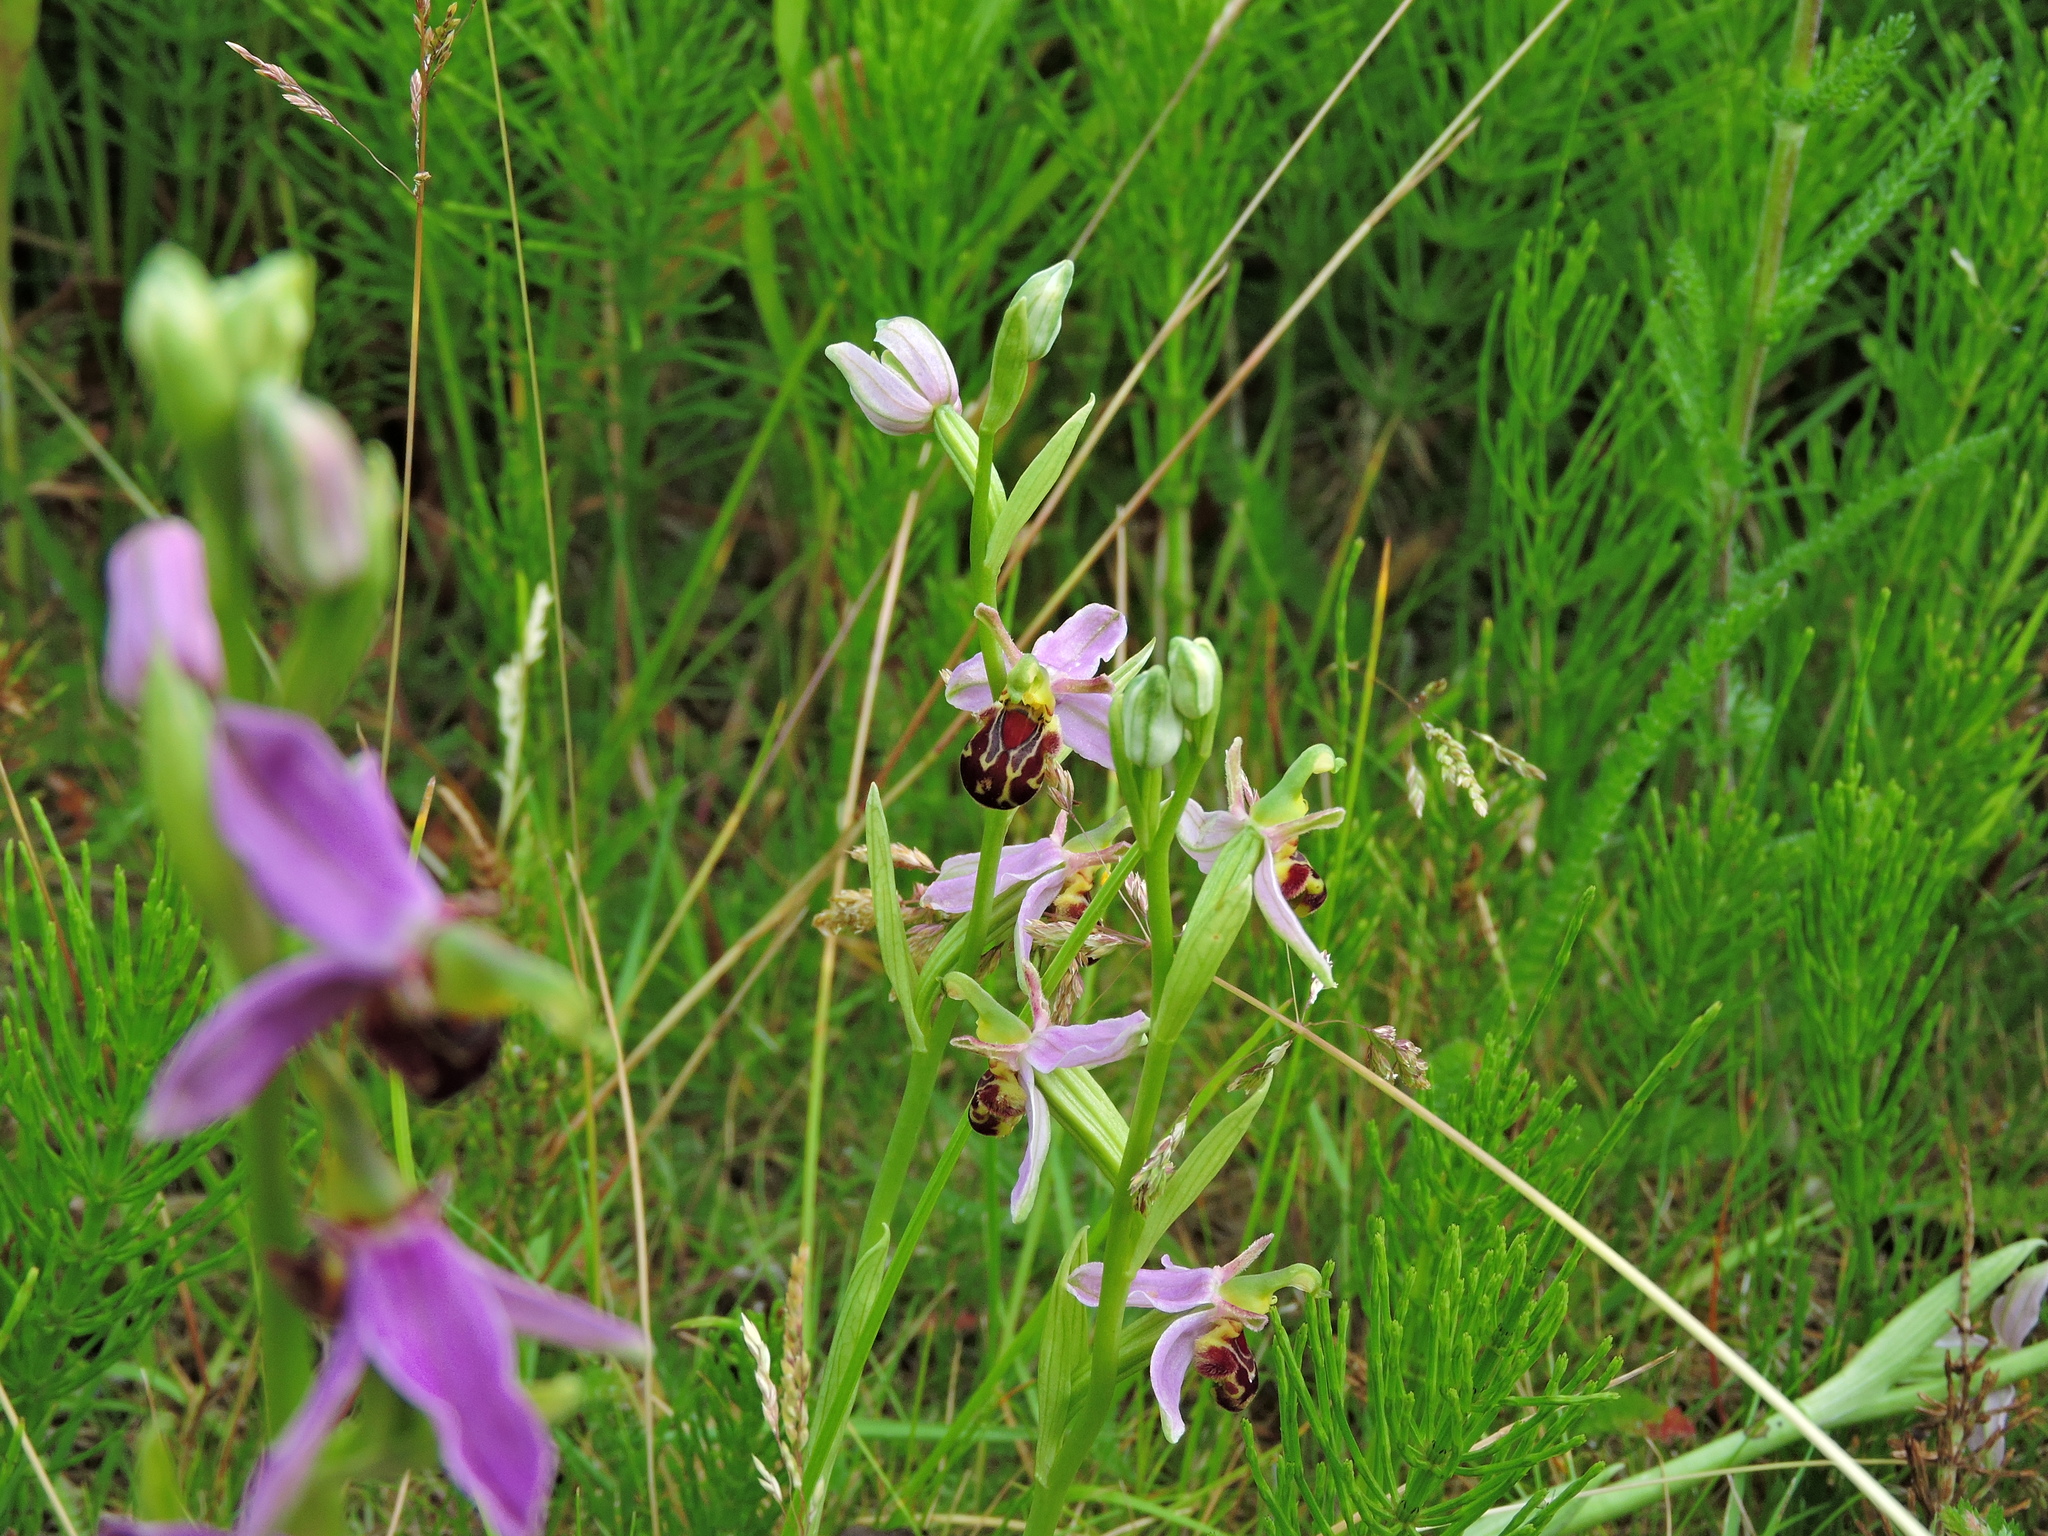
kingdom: Plantae
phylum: Tracheophyta
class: Liliopsida
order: Asparagales
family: Orchidaceae
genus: Ophrys
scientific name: Ophrys apifera
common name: Bee orchid
